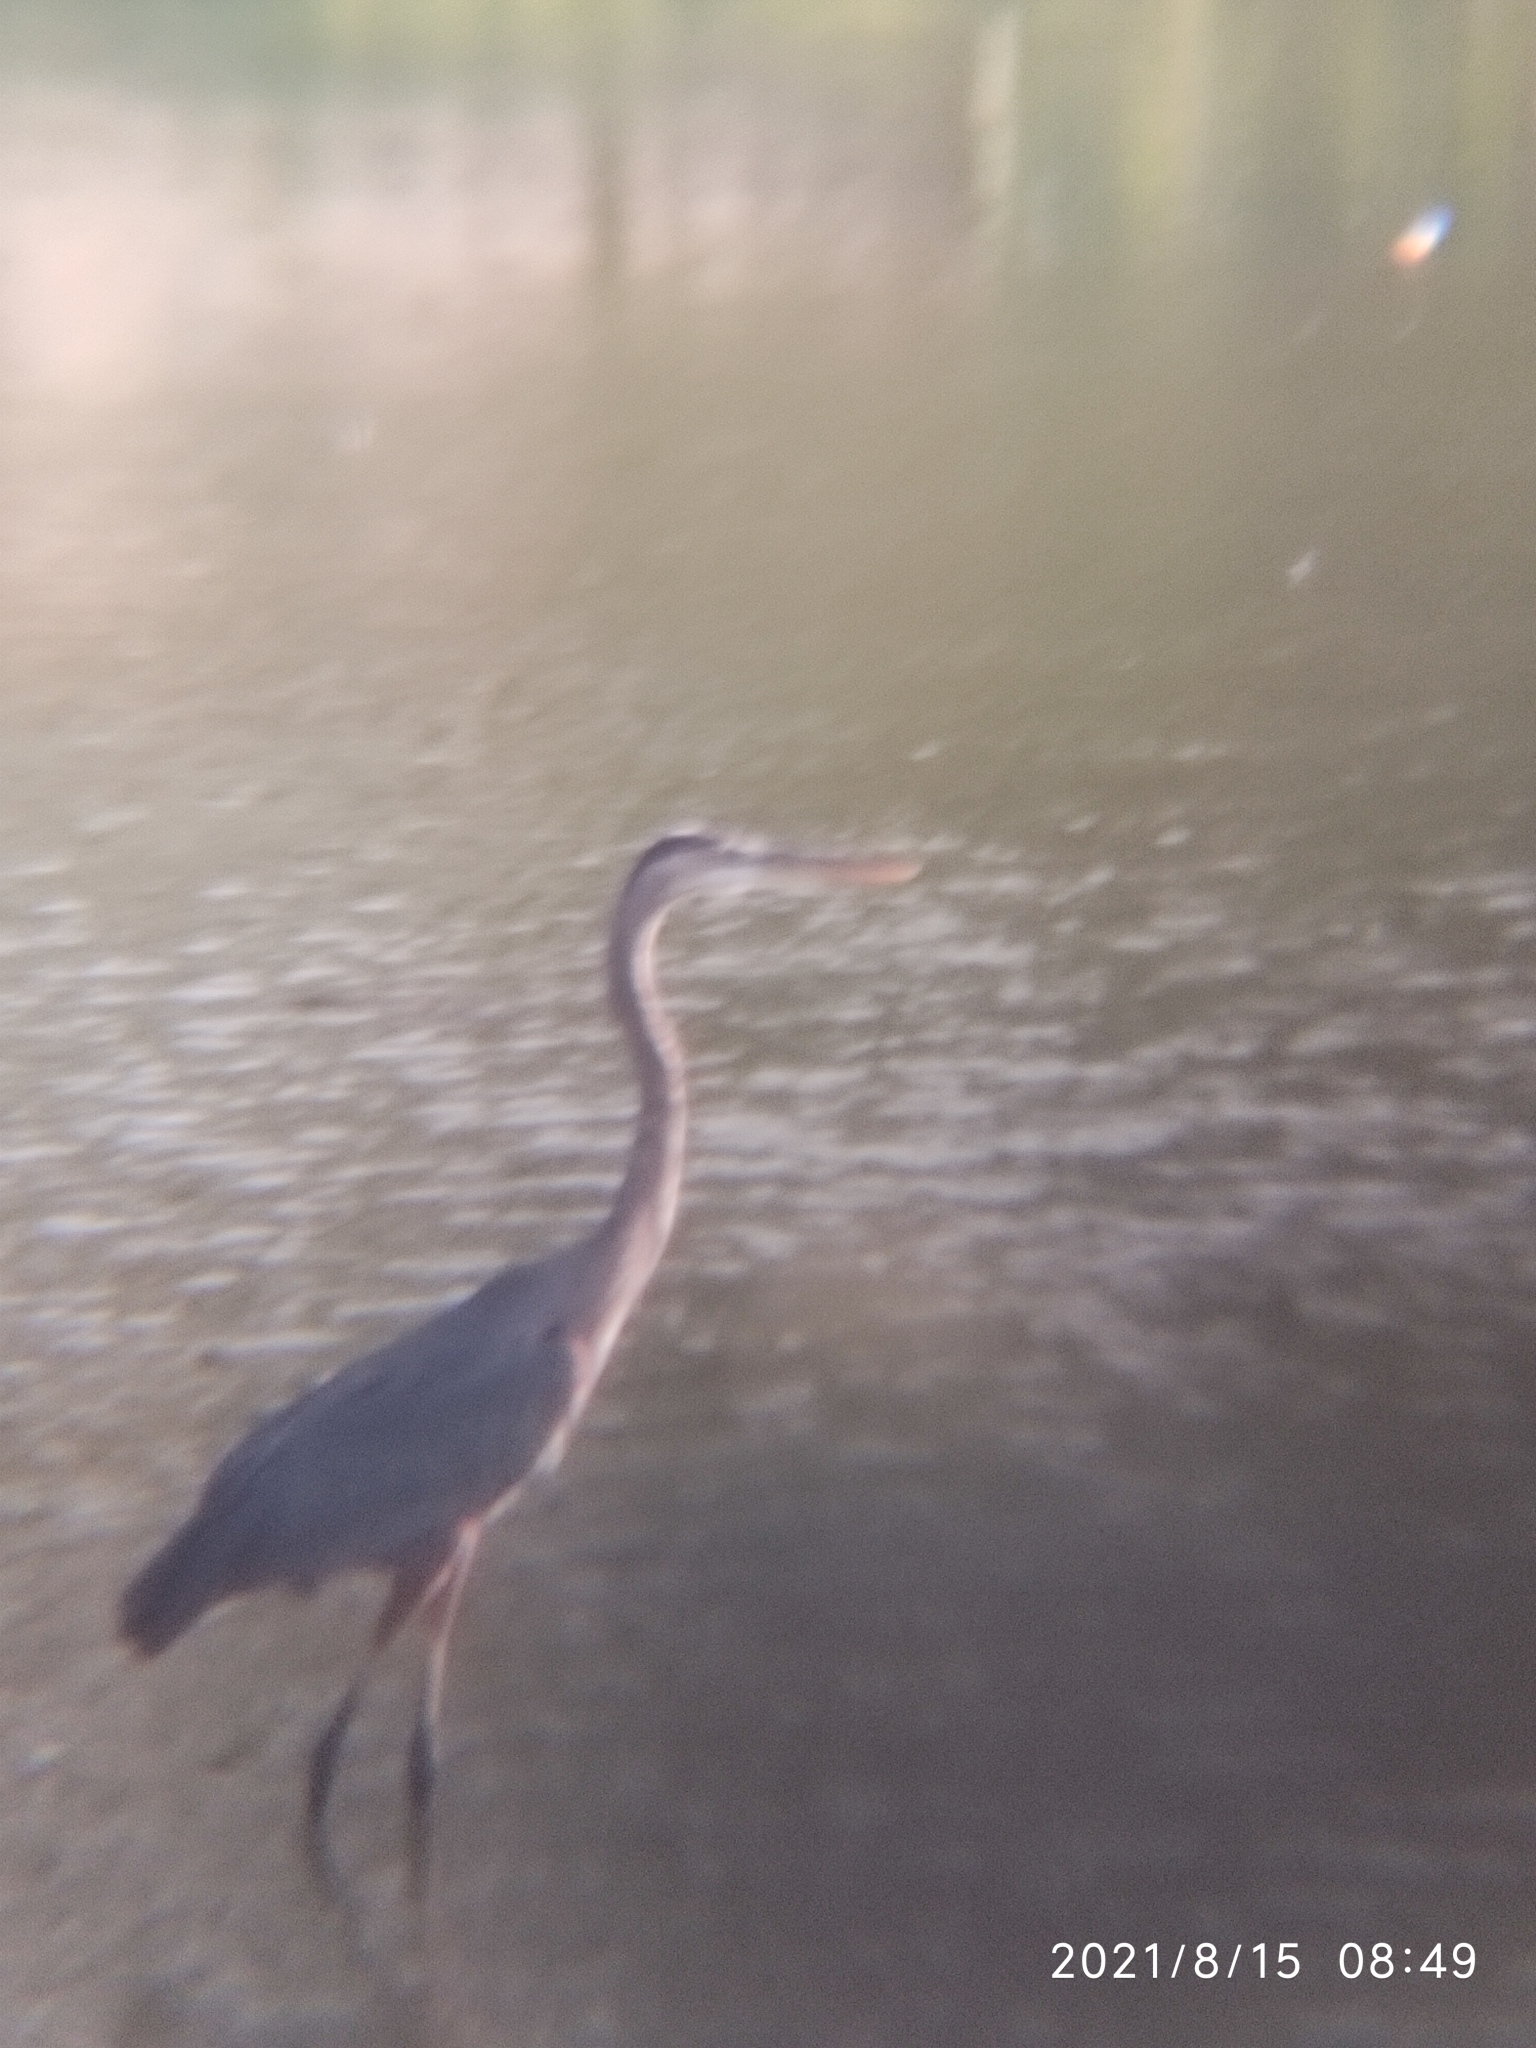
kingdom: Animalia
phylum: Chordata
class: Aves
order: Pelecaniformes
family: Ardeidae
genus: Ardea
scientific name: Ardea herodias
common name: Great blue heron
